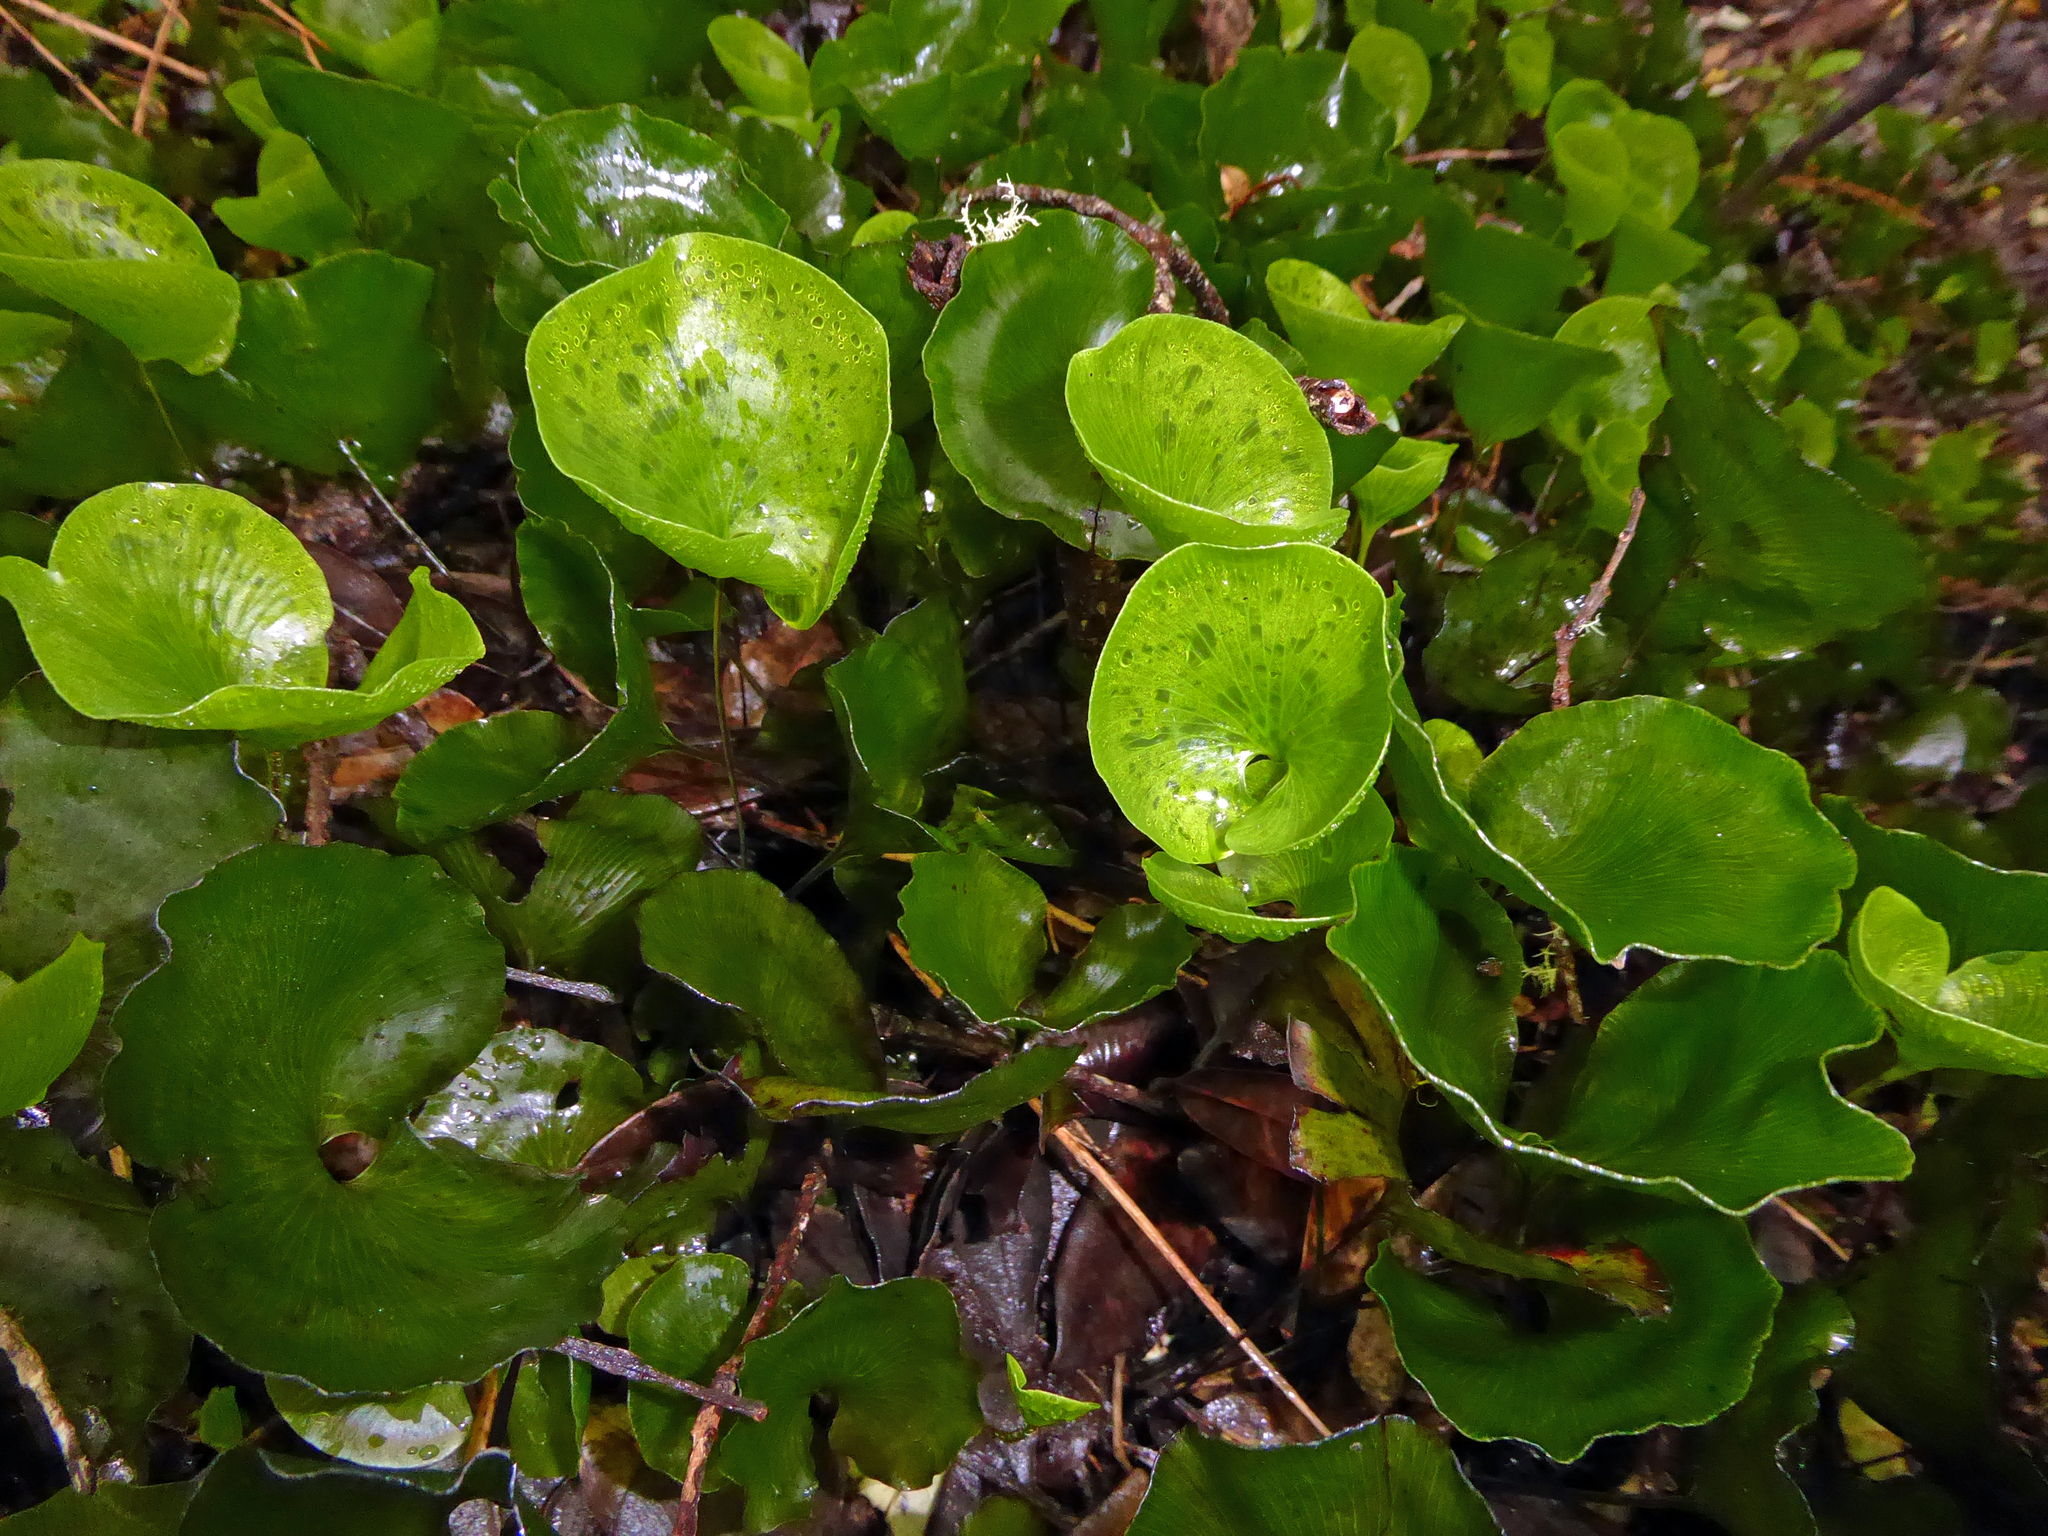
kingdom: Plantae
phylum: Tracheophyta
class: Polypodiopsida
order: Hymenophyllales
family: Hymenophyllaceae
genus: Hymenophyllum
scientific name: Hymenophyllum nephrophyllum
